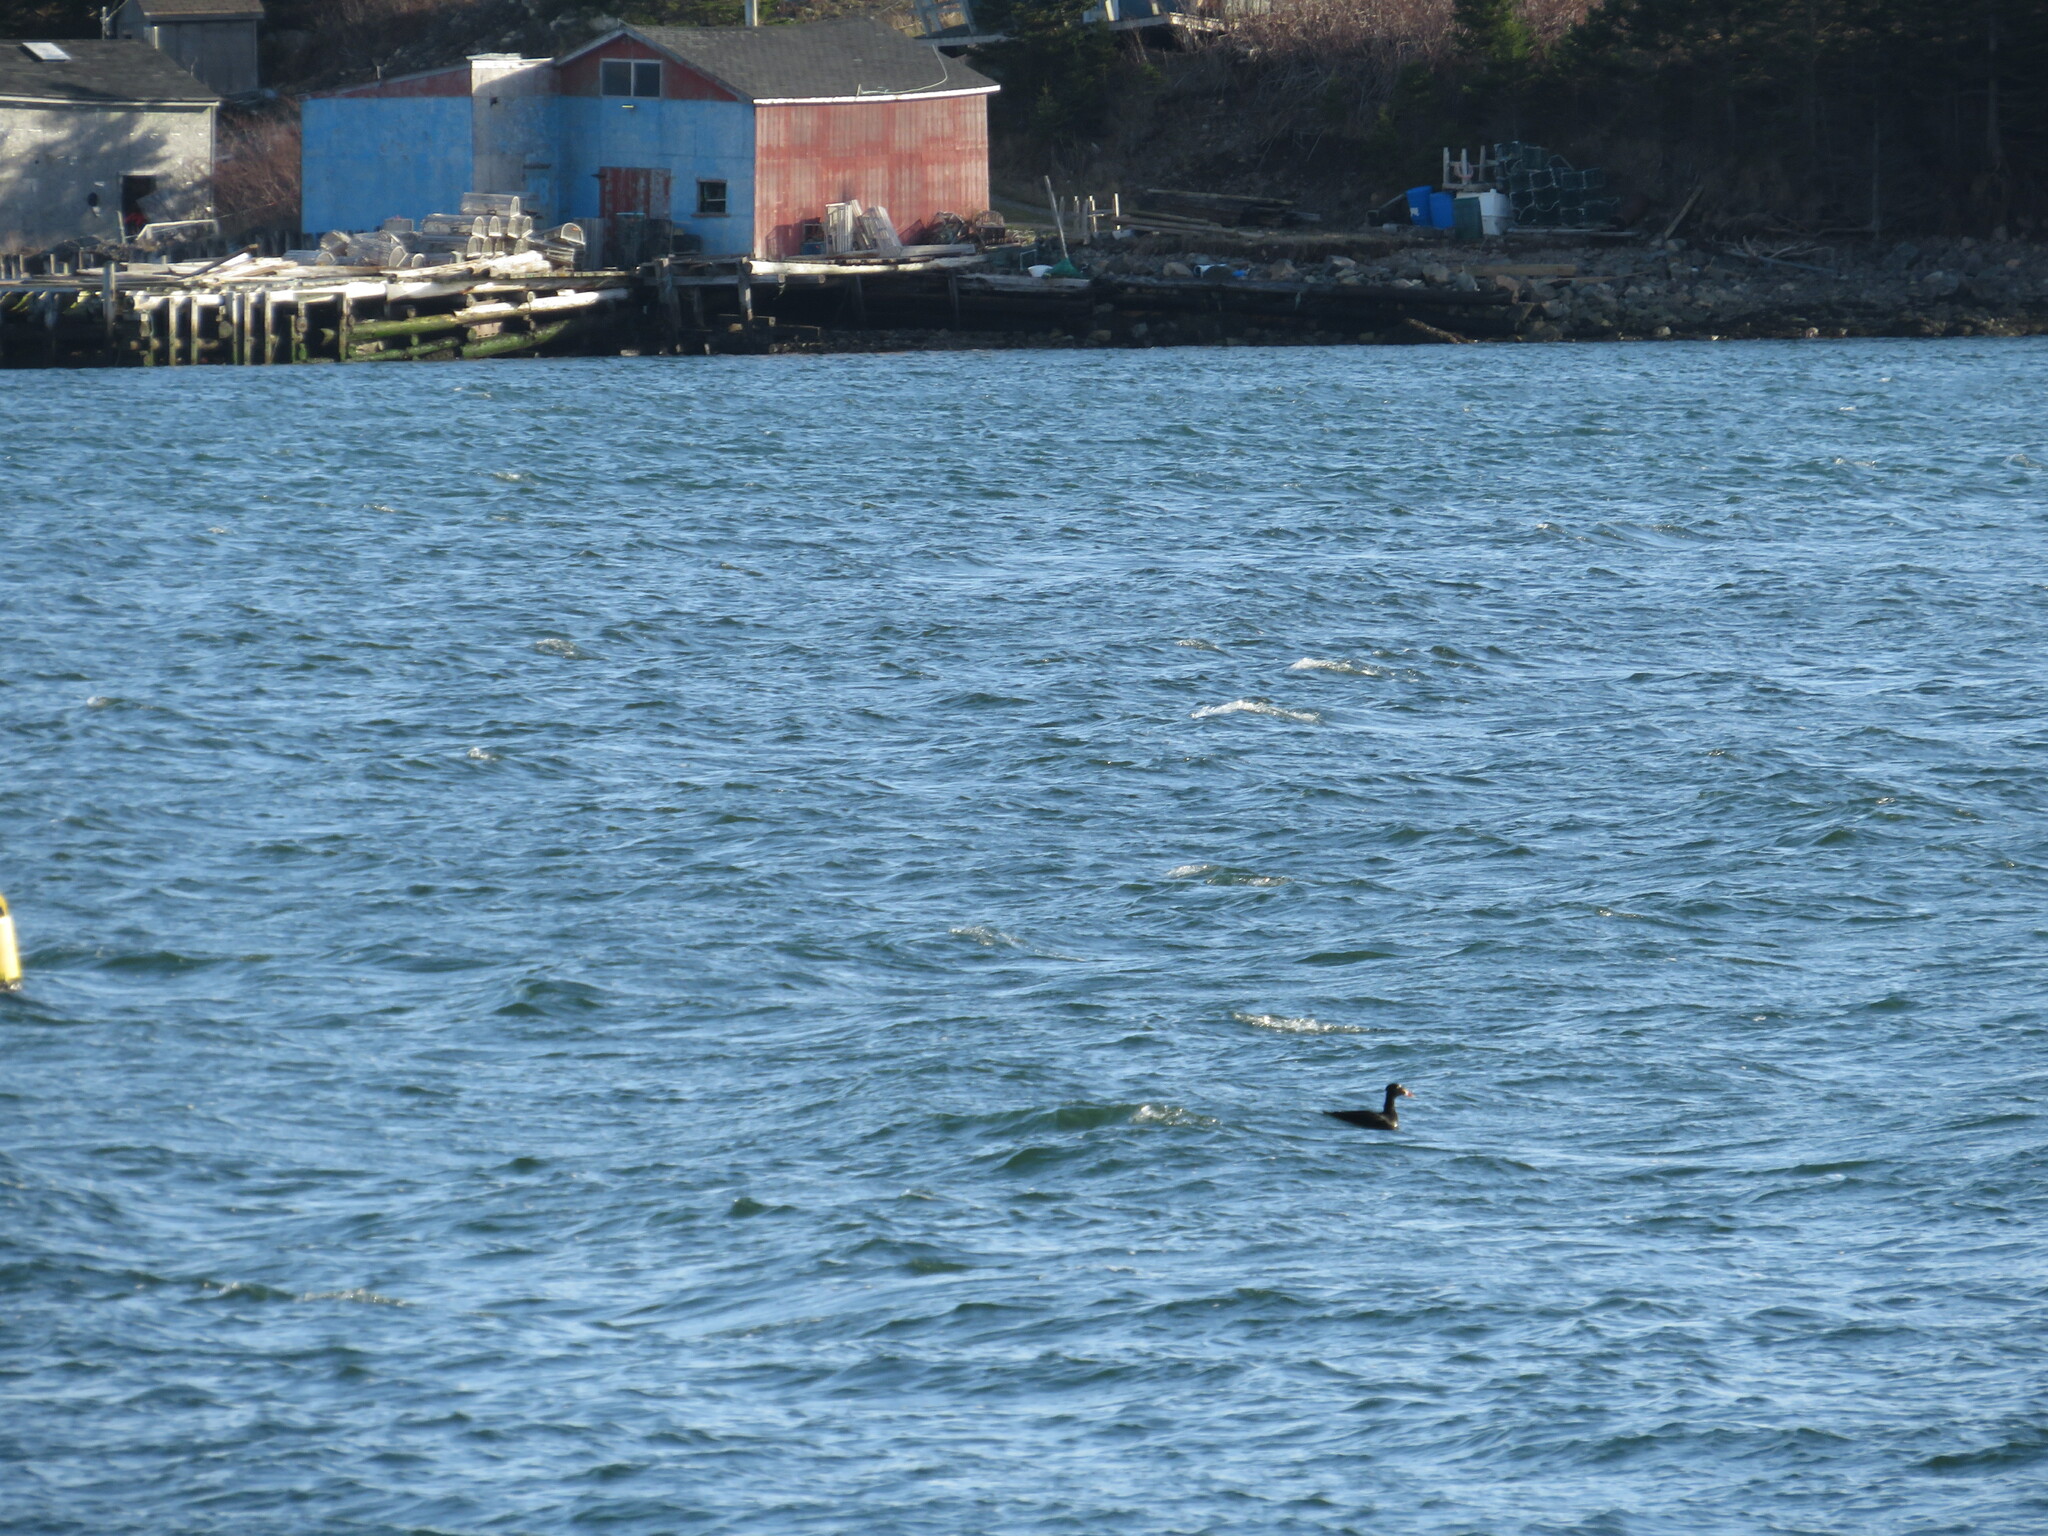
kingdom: Animalia
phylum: Chordata
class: Aves
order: Anseriformes
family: Anatidae
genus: Melanitta
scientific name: Melanitta perspicillata
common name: Surf scoter
